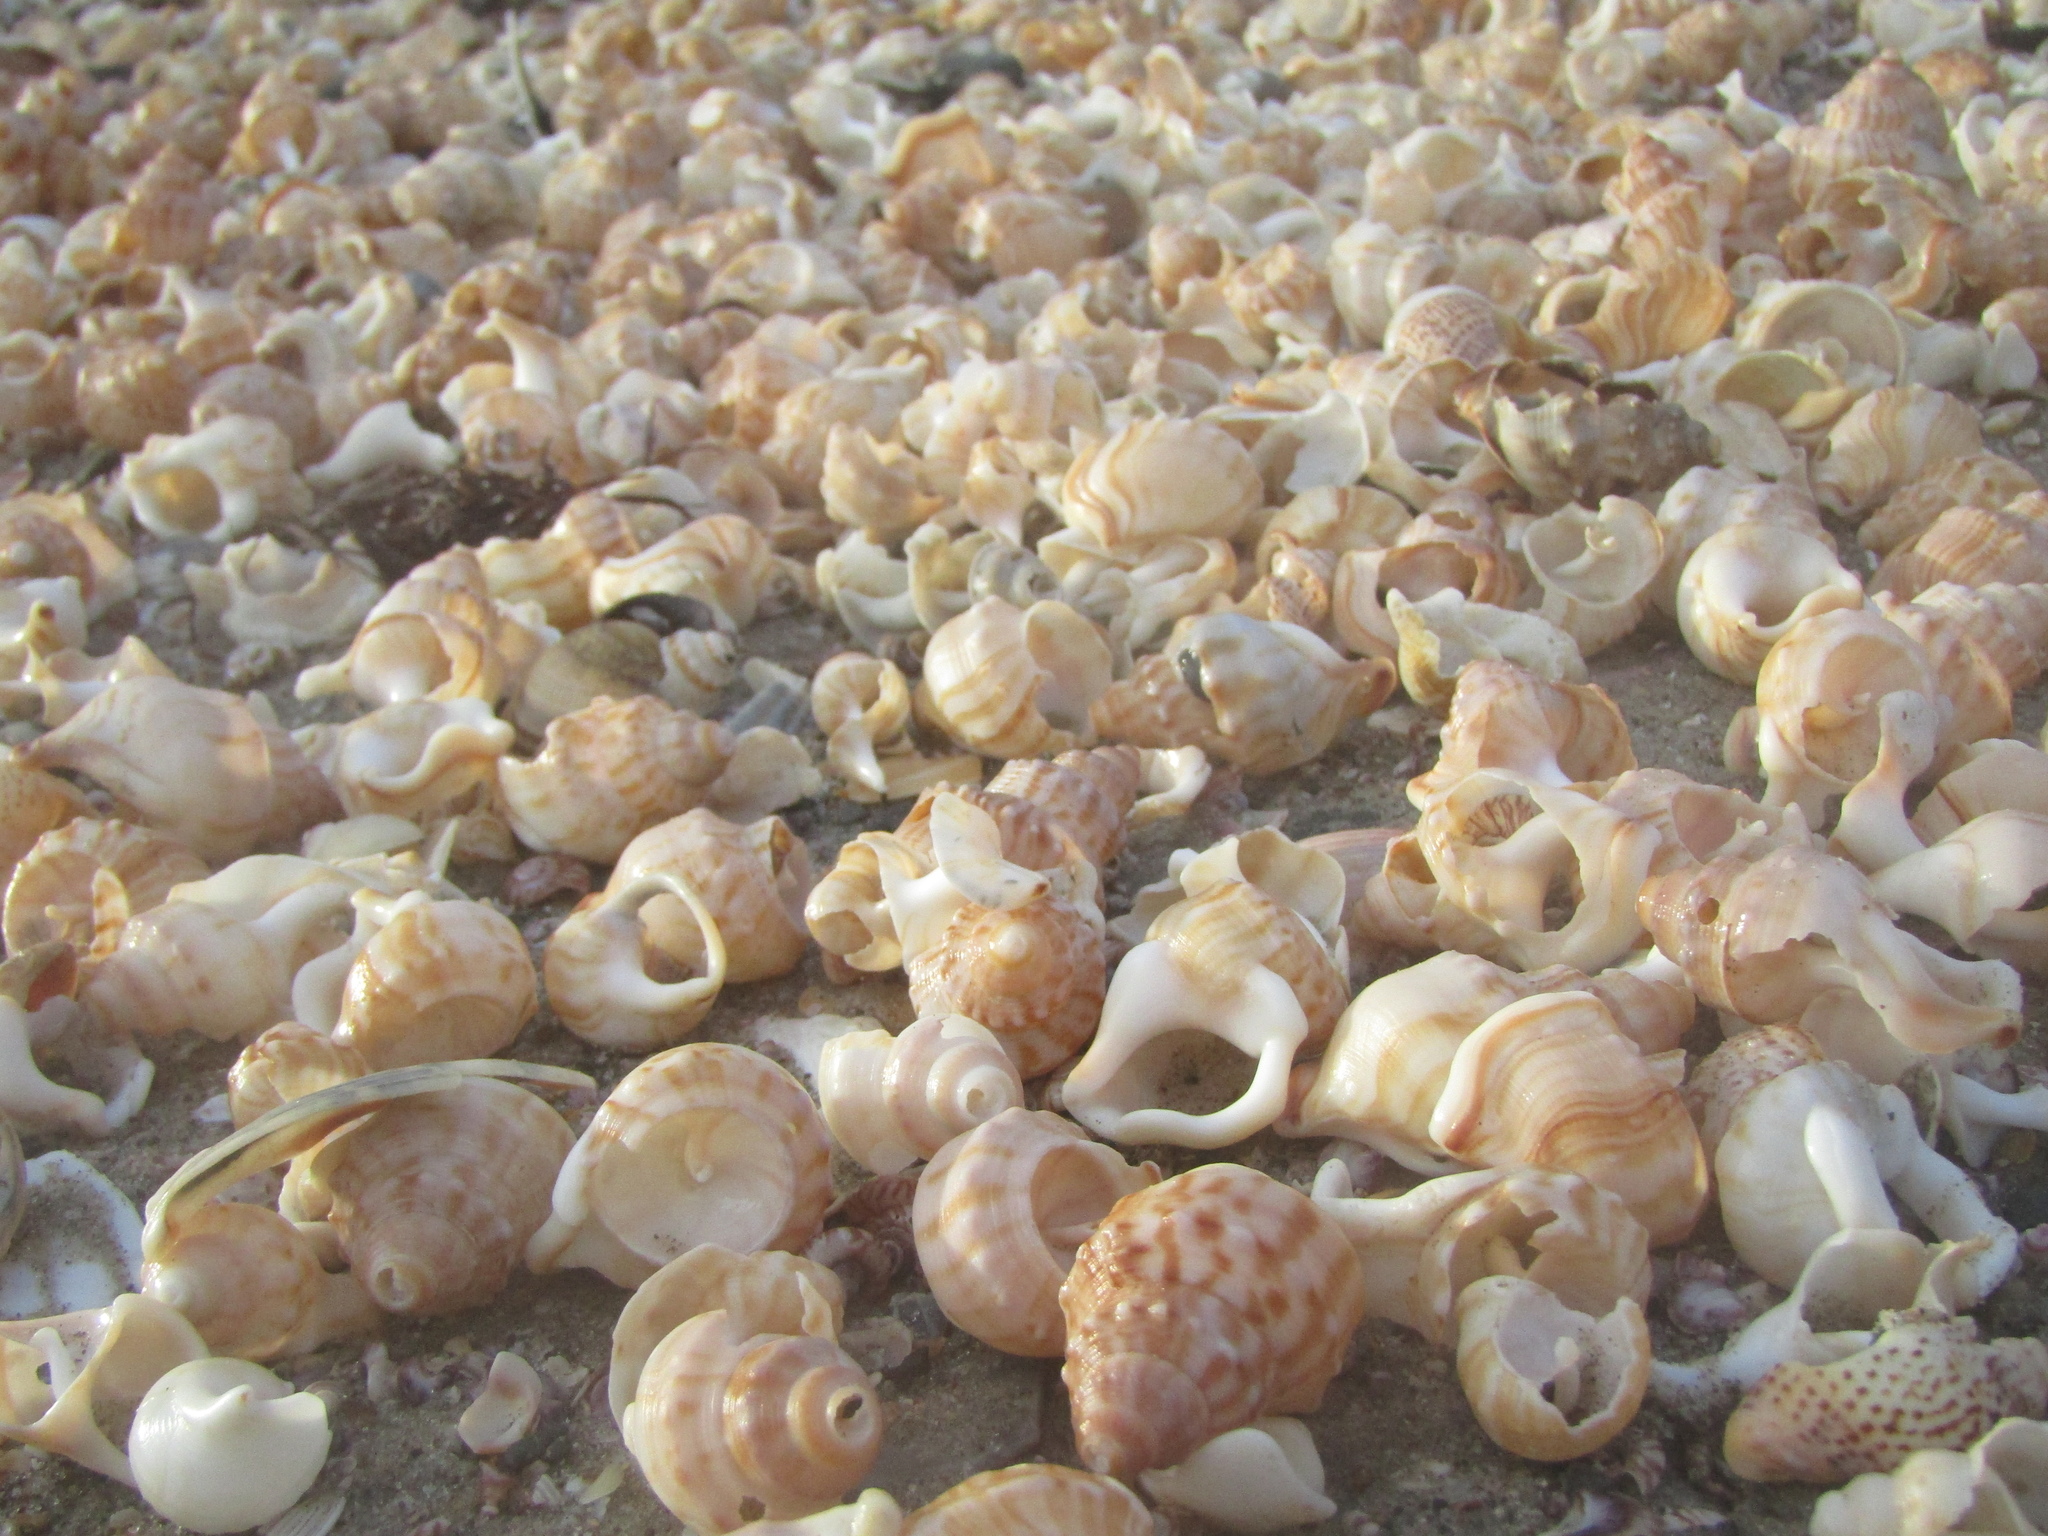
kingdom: Animalia
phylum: Mollusca
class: Gastropoda
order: Littorinimorpha
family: Struthiolariidae
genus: Struthiolaria
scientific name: Struthiolaria papulosa
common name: Large ostrich foot
